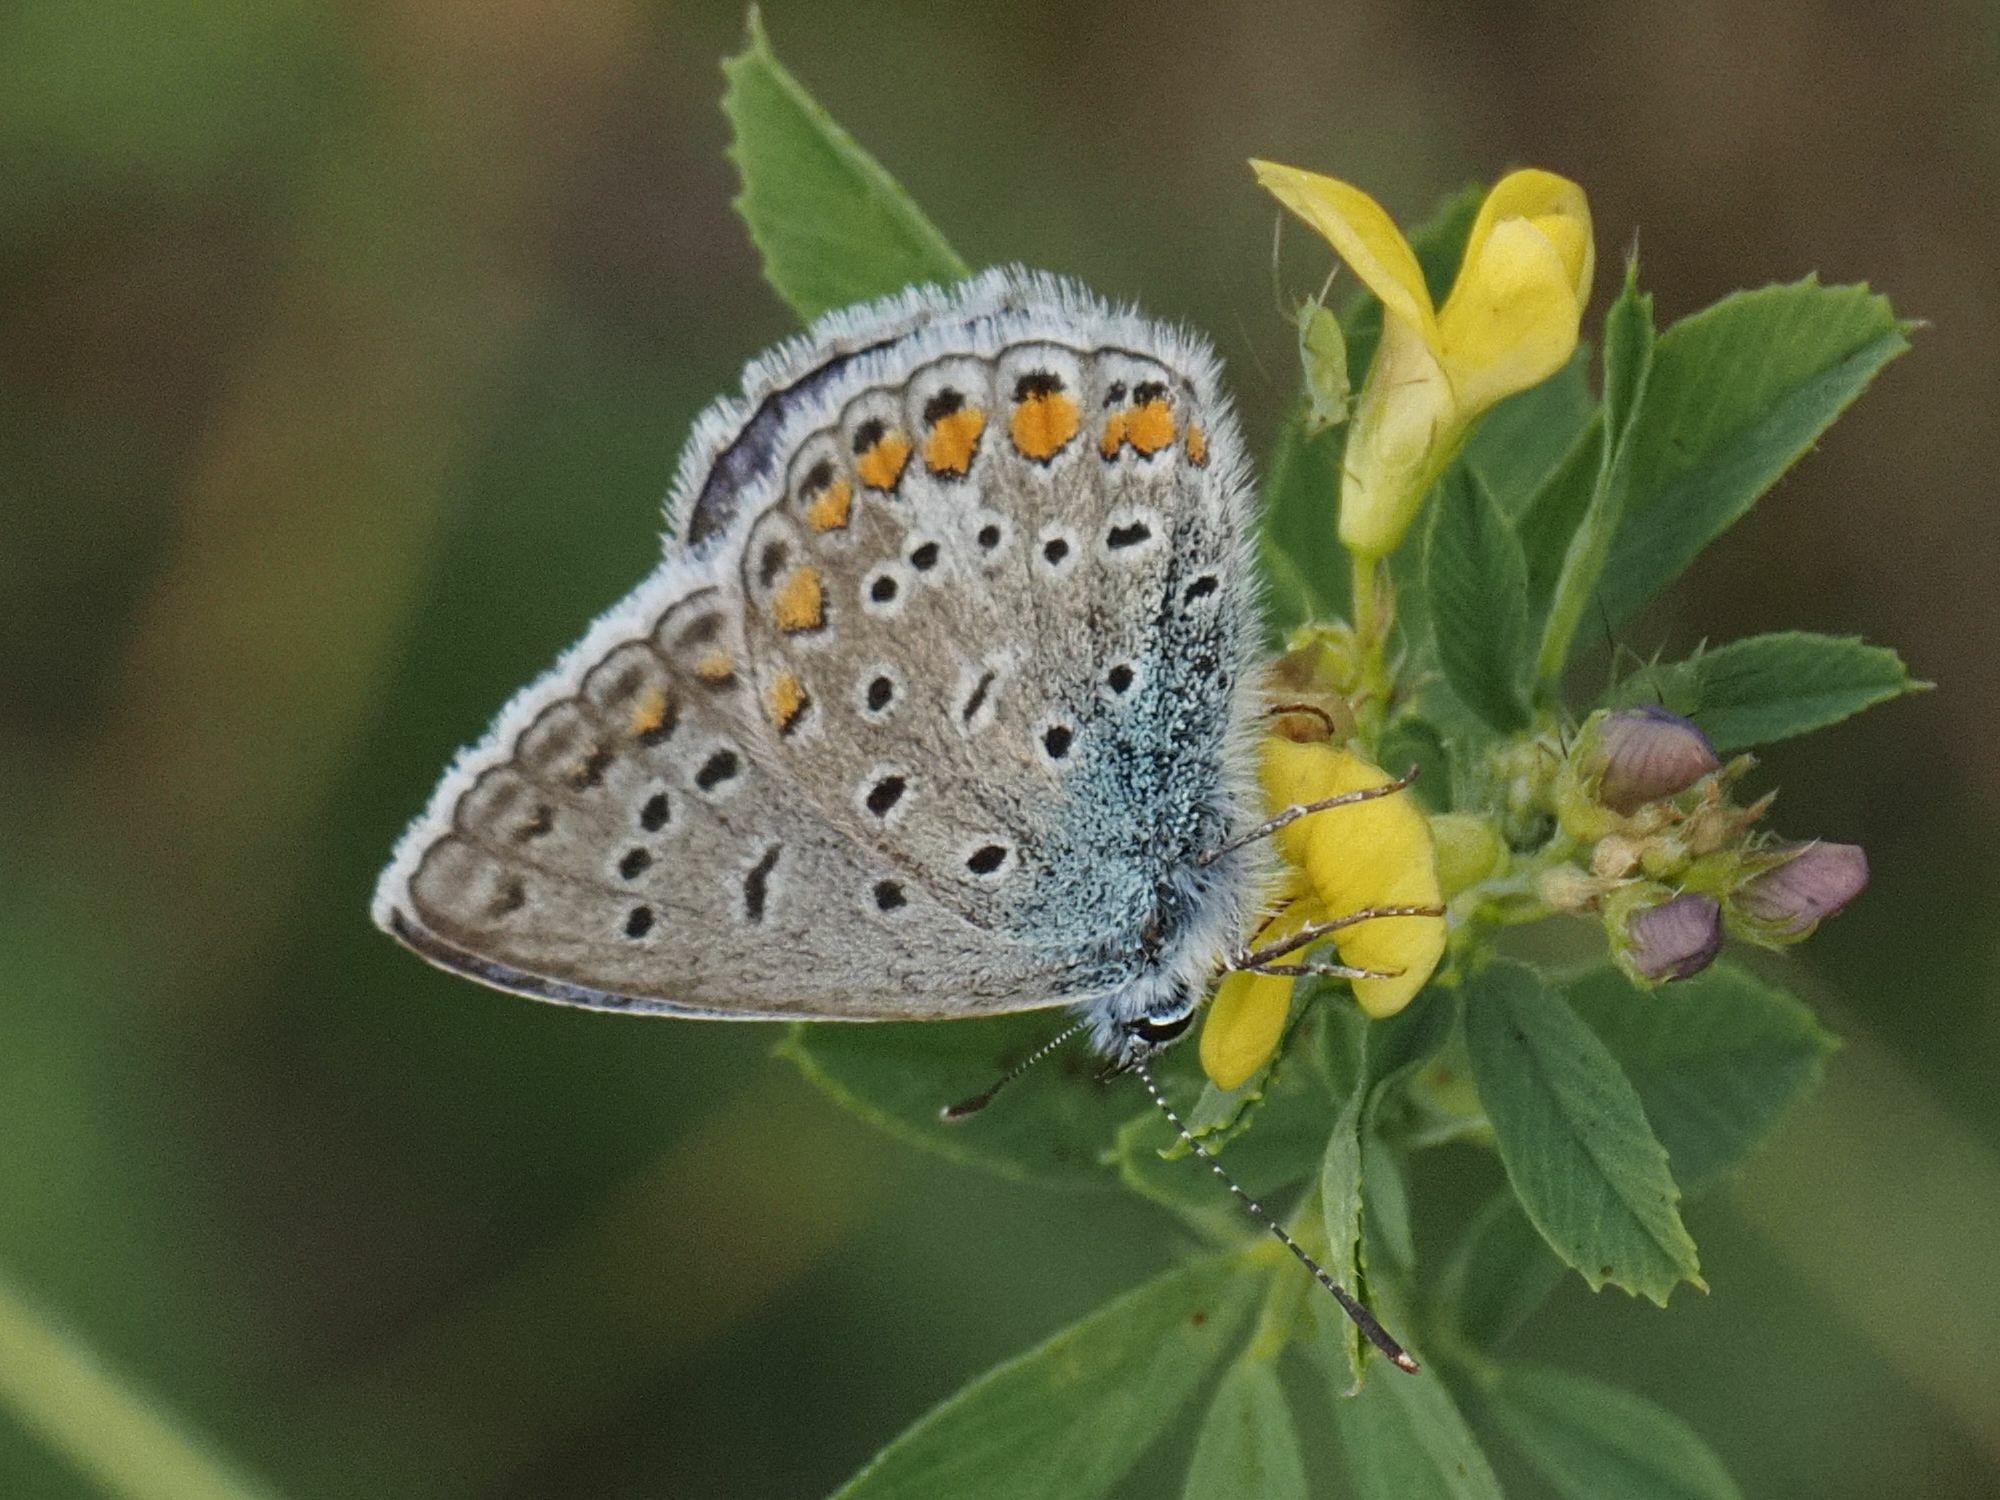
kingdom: Animalia
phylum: Arthropoda
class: Insecta
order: Lepidoptera
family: Lycaenidae
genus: Polyommatus
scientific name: Polyommatus icarus
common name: Common blue
